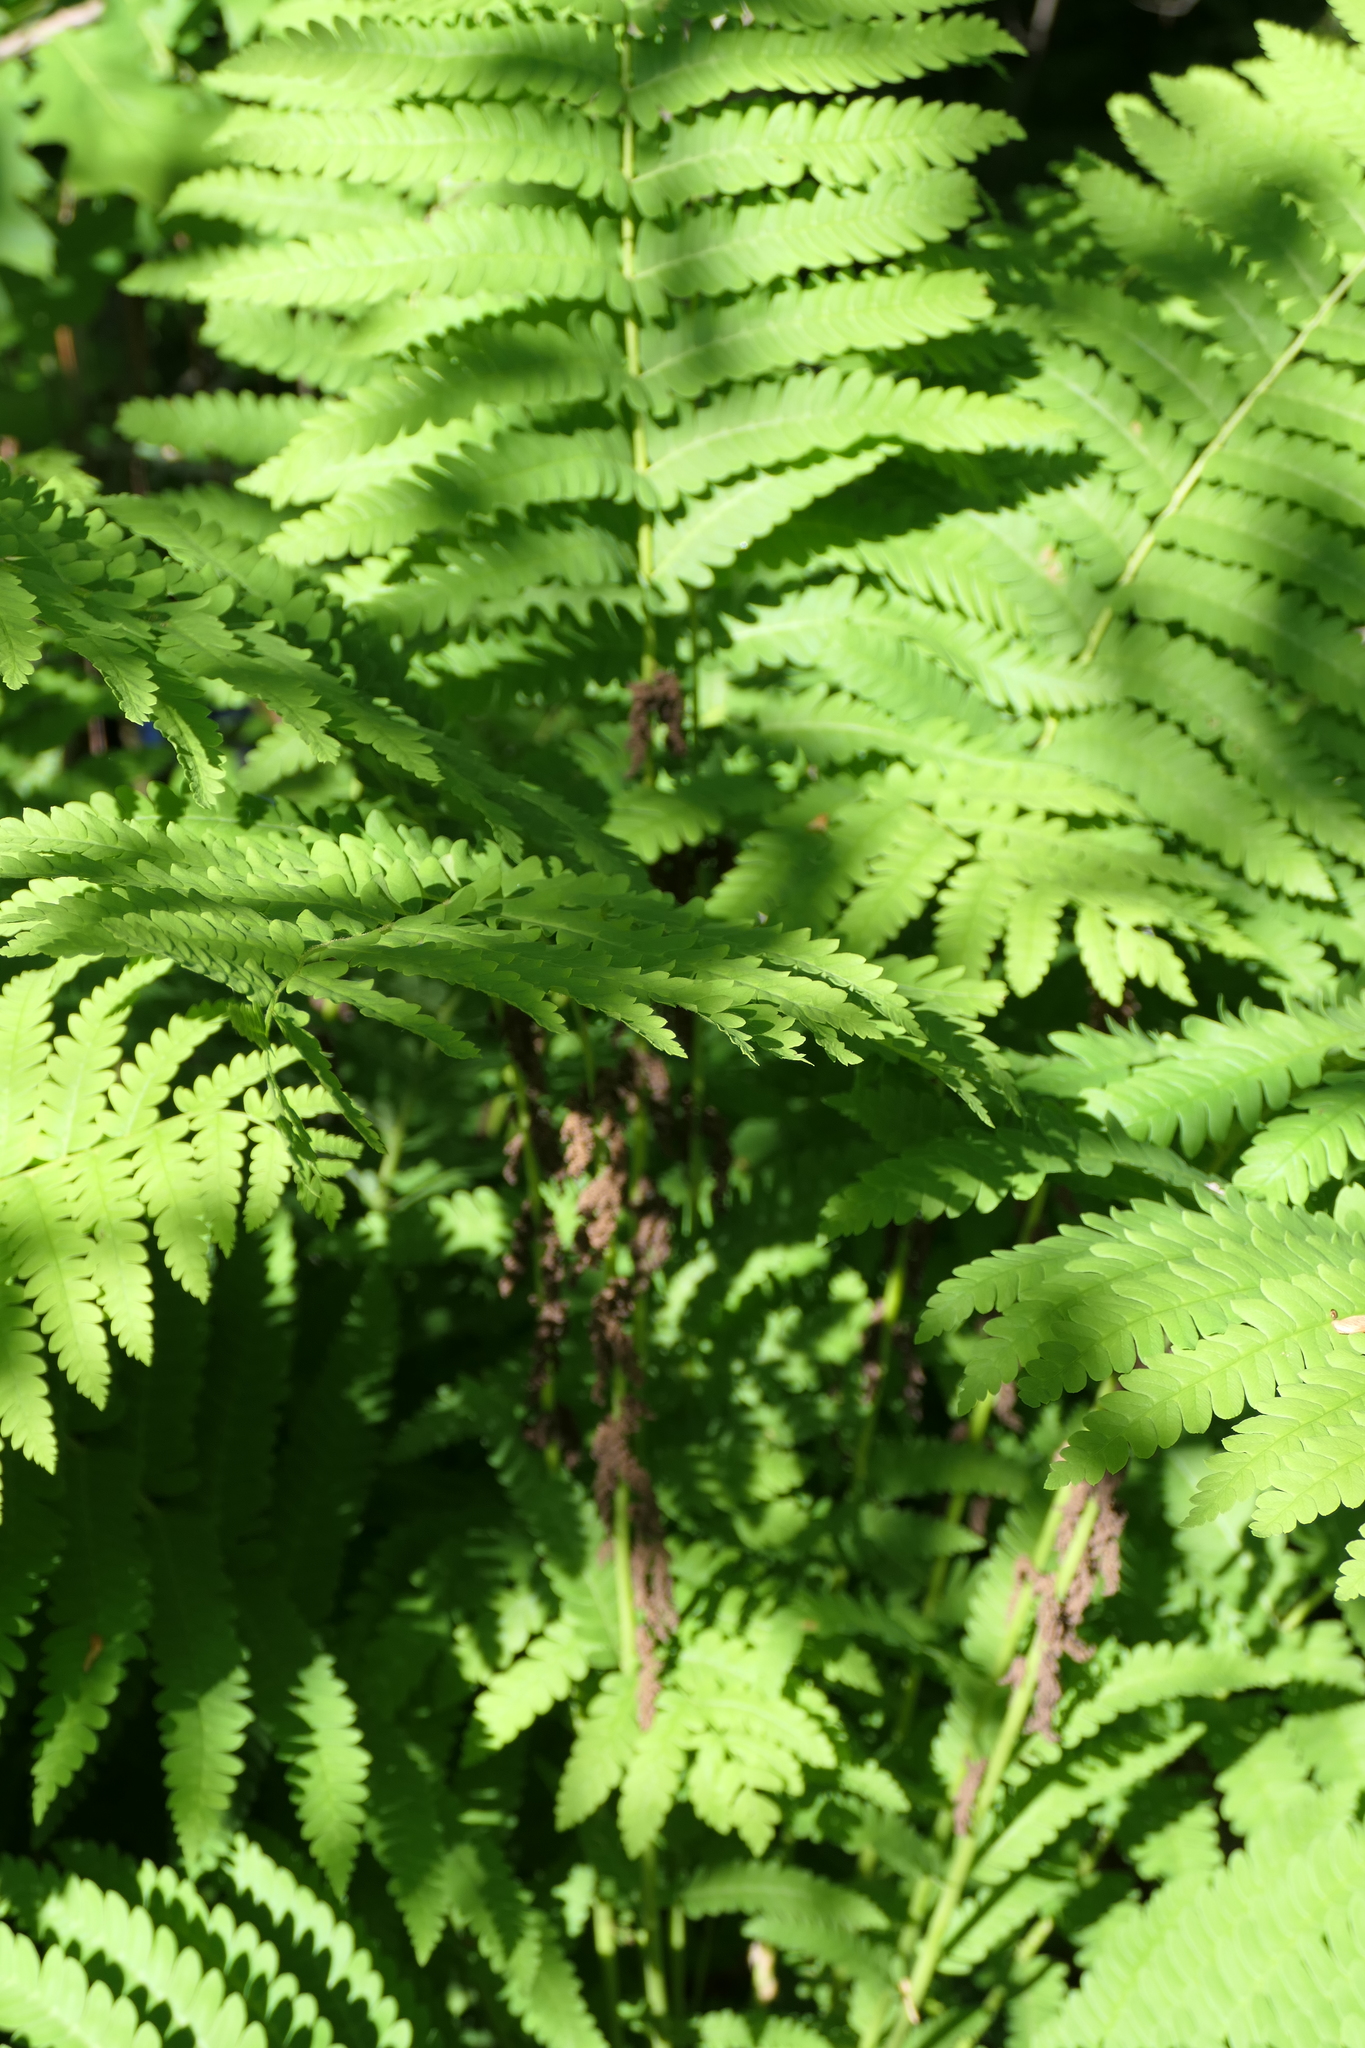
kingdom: Plantae
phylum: Tracheophyta
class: Polypodiopsida
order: Osmundales
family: Osmundaceae
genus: Claytosmunda
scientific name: Claytosmunda claytoniana
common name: Clayton's fern
